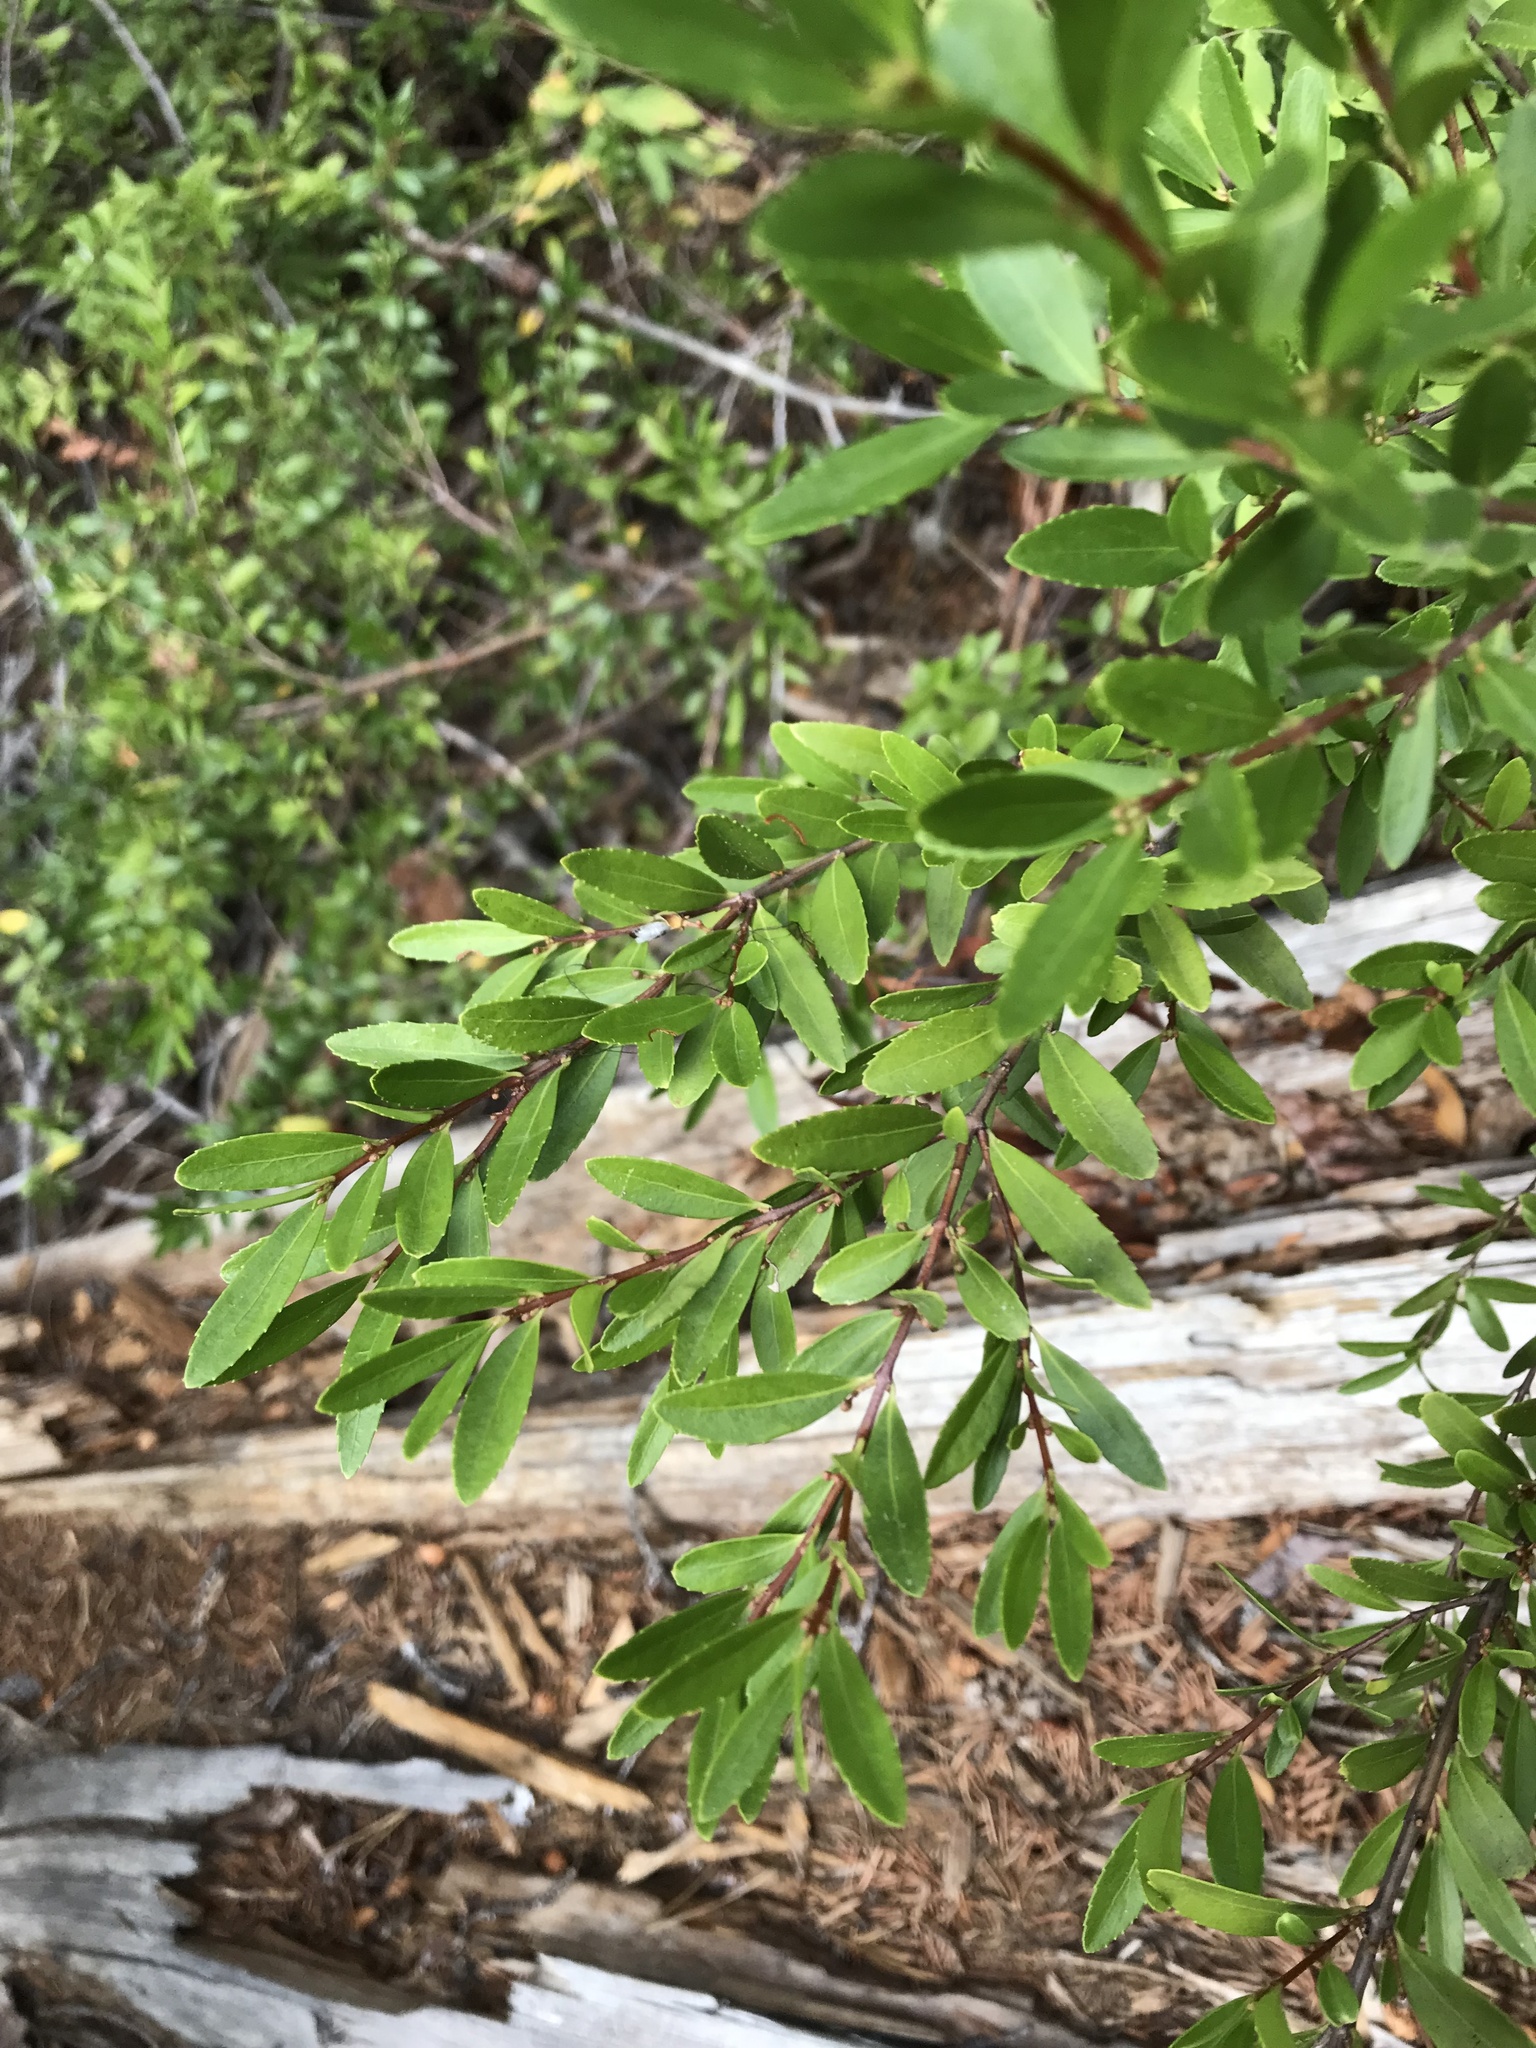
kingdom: Plantae
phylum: Tracheophyta
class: Magnoliopsida
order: Celastrales
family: Celastraceae
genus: Paxistima
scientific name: Paxistima myrsinites
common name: Mountain-lover
